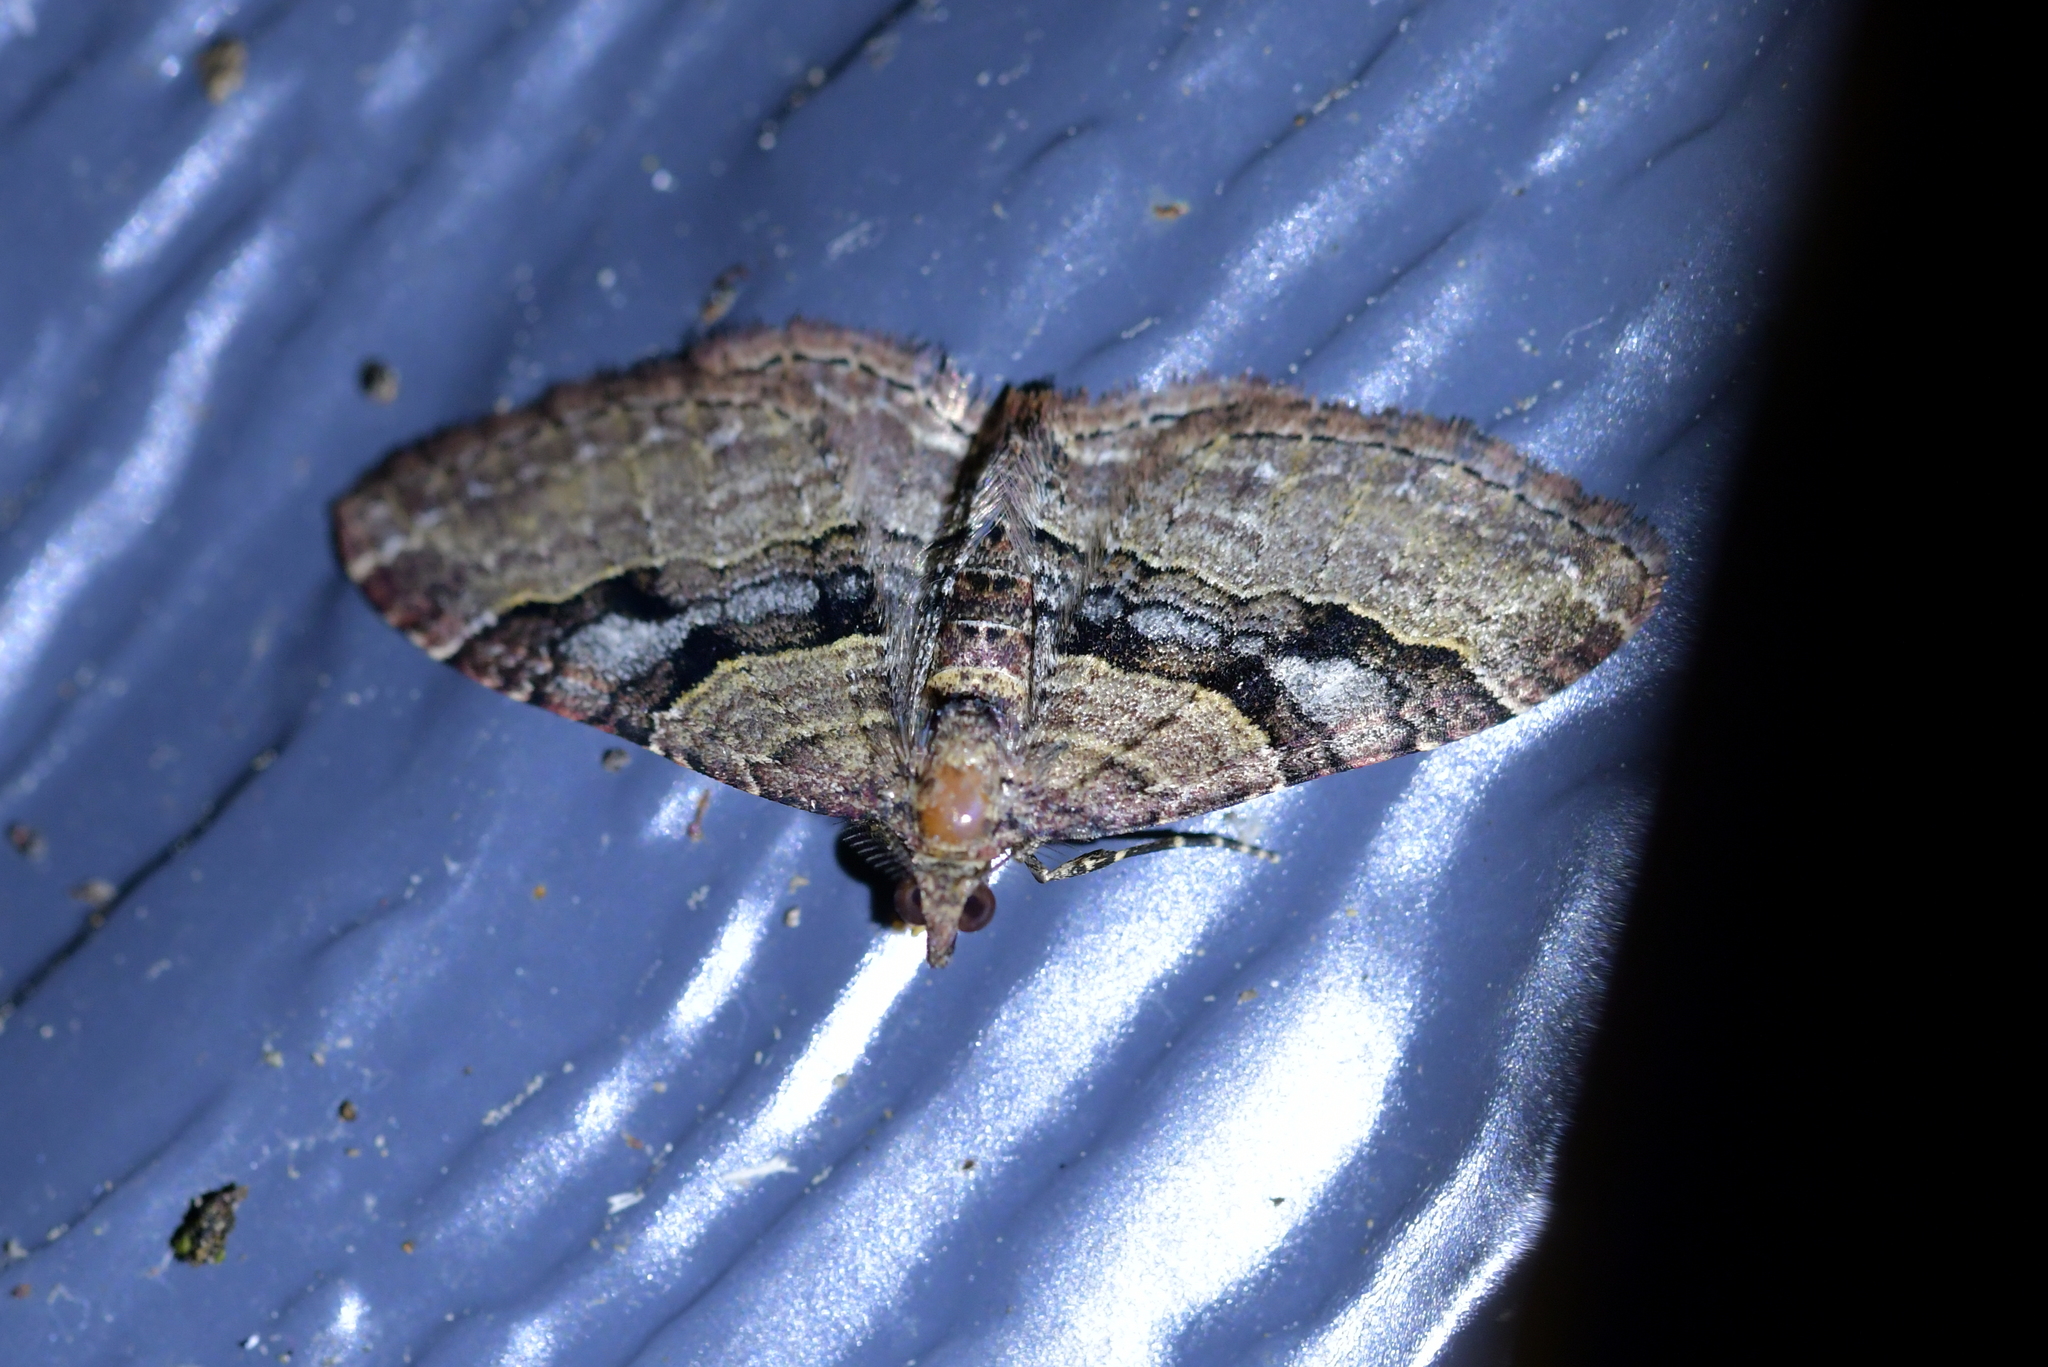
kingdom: Animalia
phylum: Arthropoda
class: Insecta
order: Lepidoptera
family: Geometridae
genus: Epyaxa
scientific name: Epyaxa lucidata
